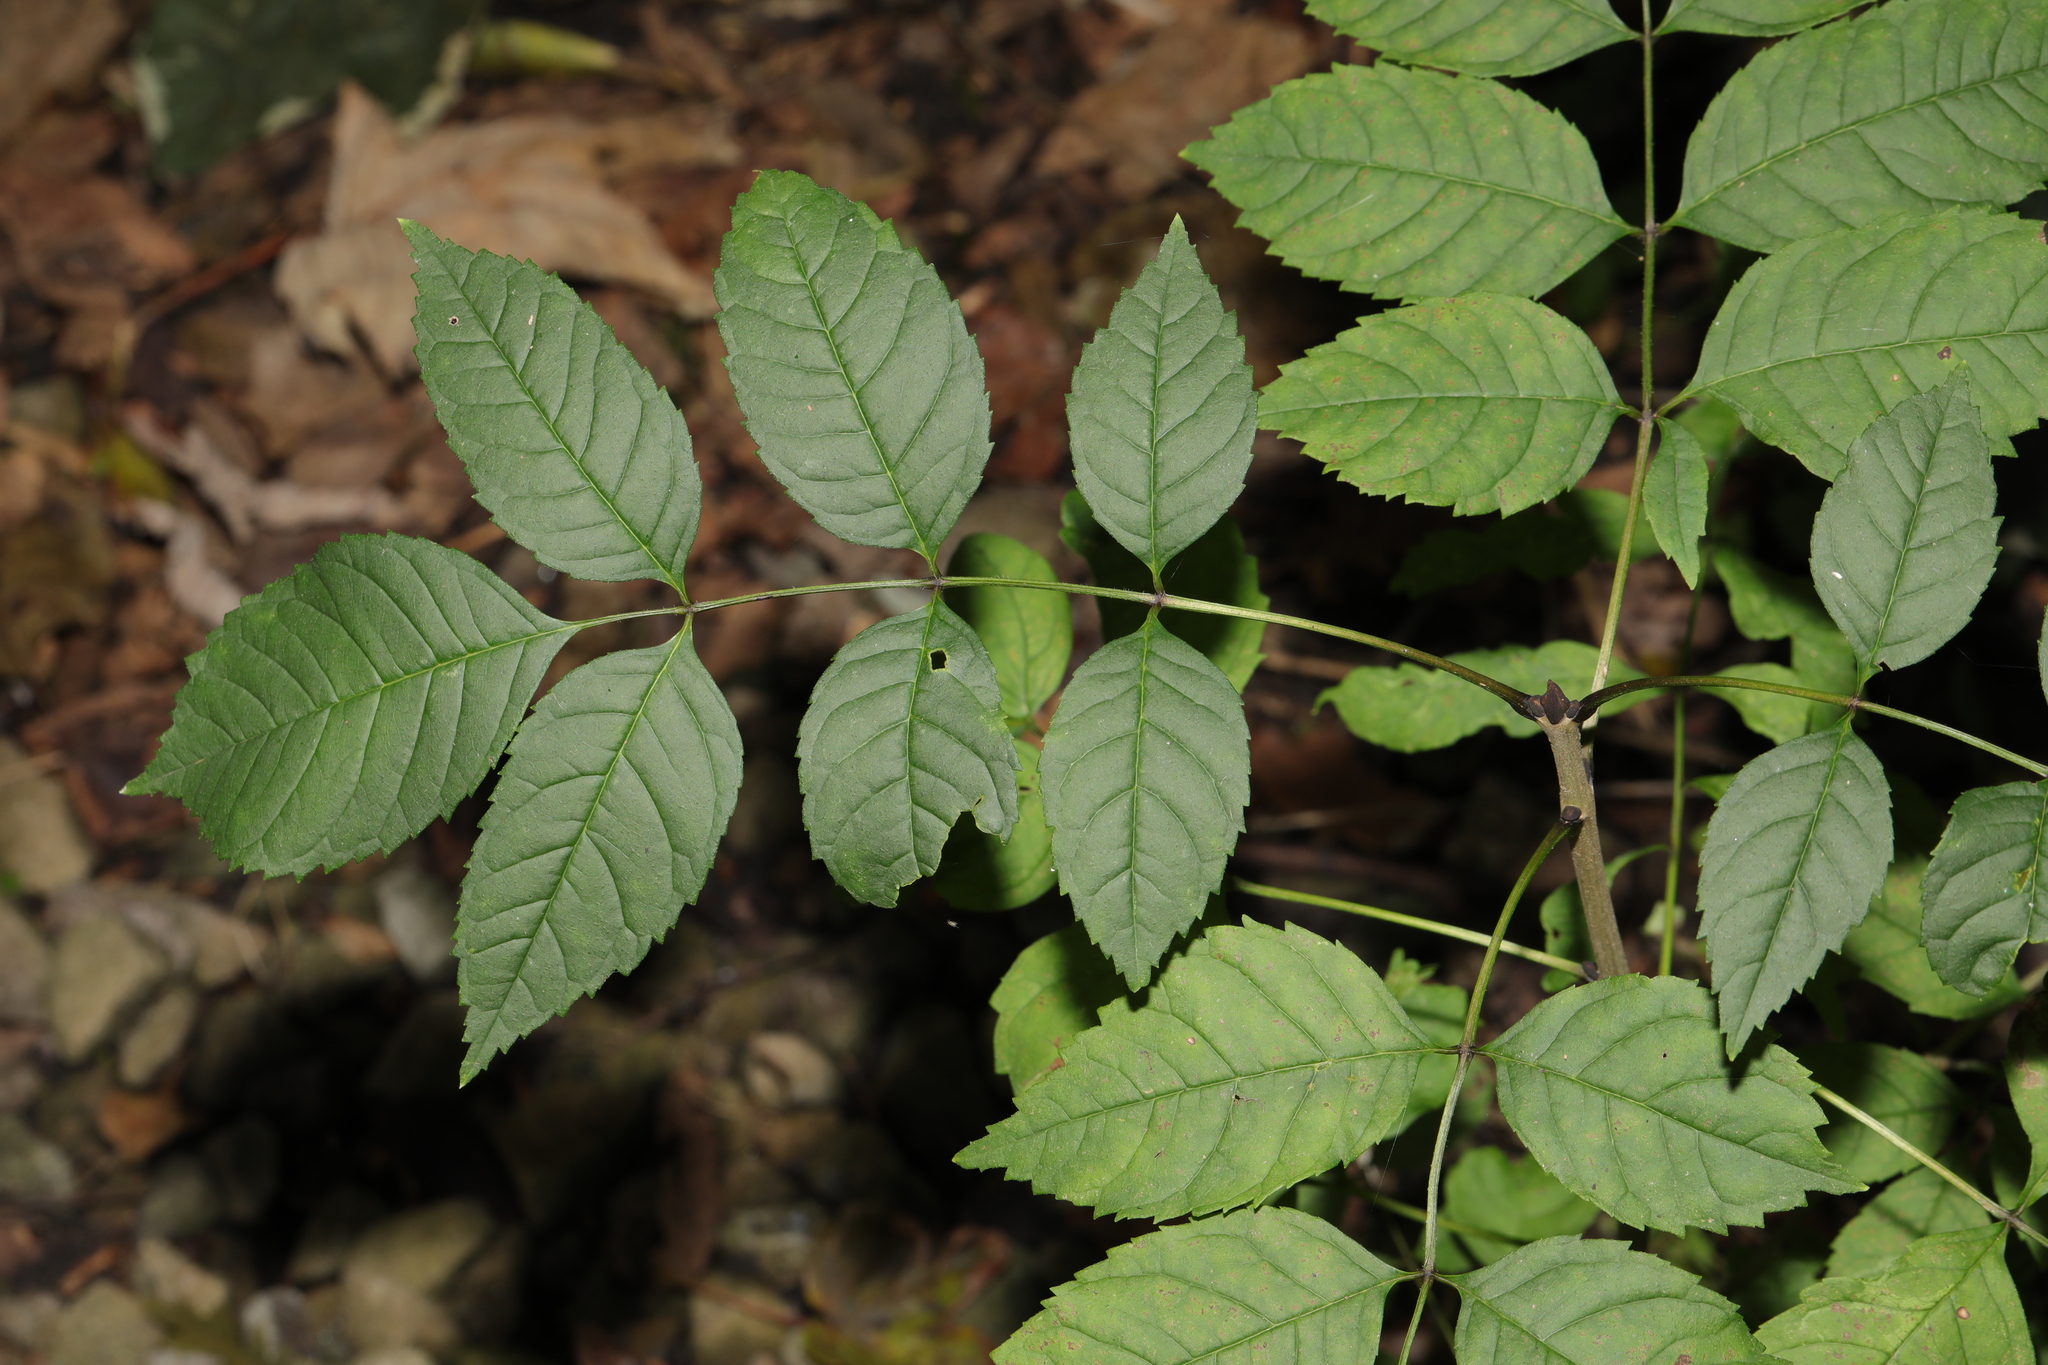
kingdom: Plantae
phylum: Tracheophyta
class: Magnoliopsida
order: Lamiales
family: Oleaceae
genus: Fraxinus
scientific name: Fraxinus excelsior
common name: European ash
